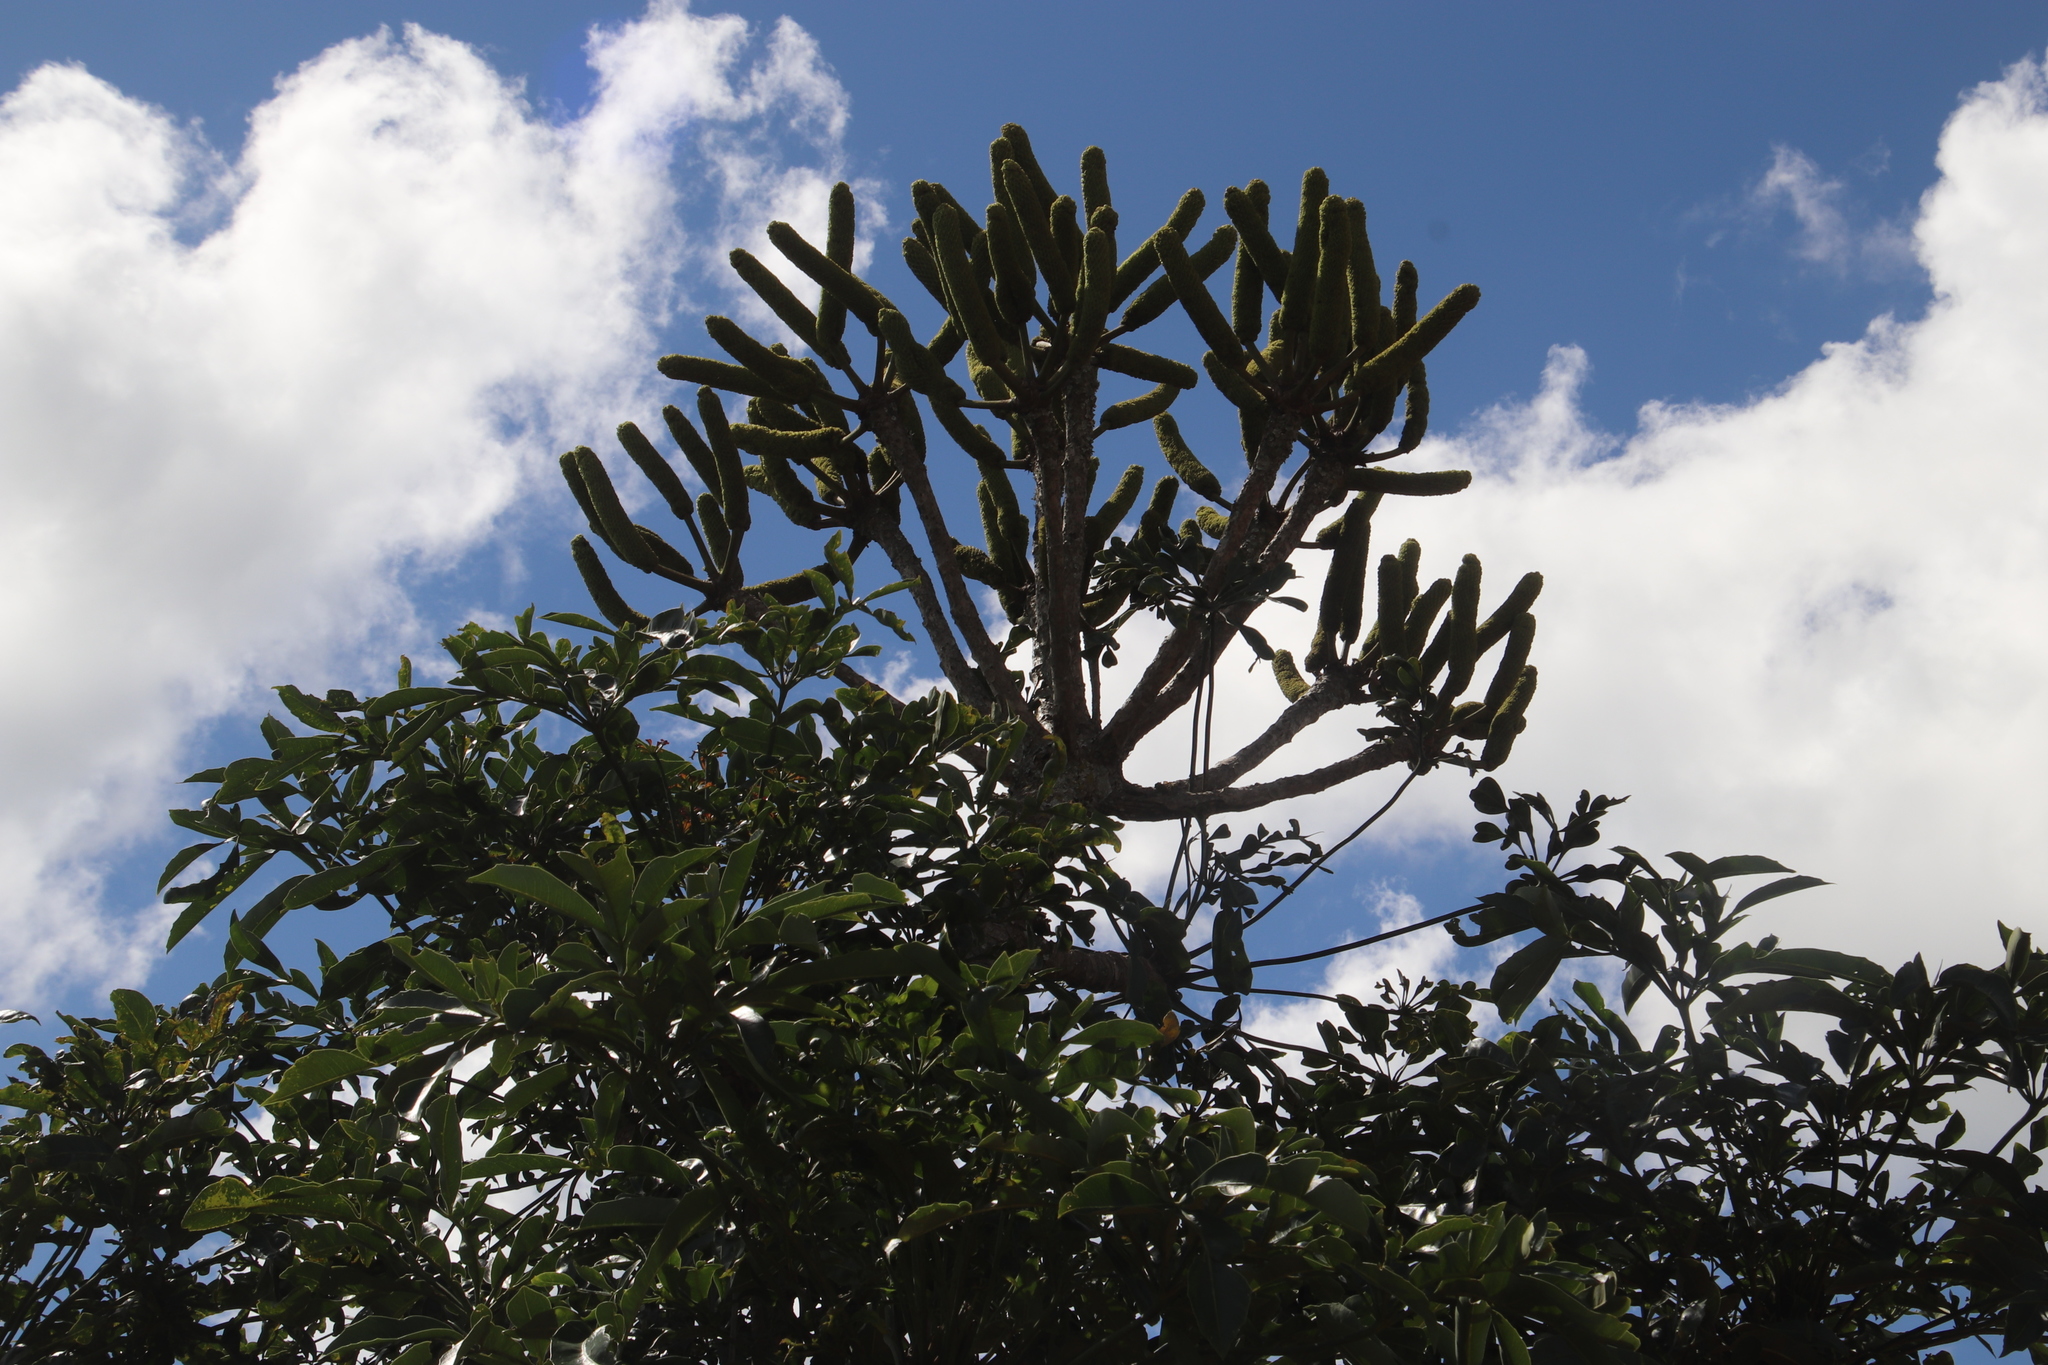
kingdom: Plantae
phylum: Tracheophyta
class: Magnoliopsida
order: Apiales
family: Araliaceae
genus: Cussonia
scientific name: Cussonia spicata
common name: Common cabbagetree
